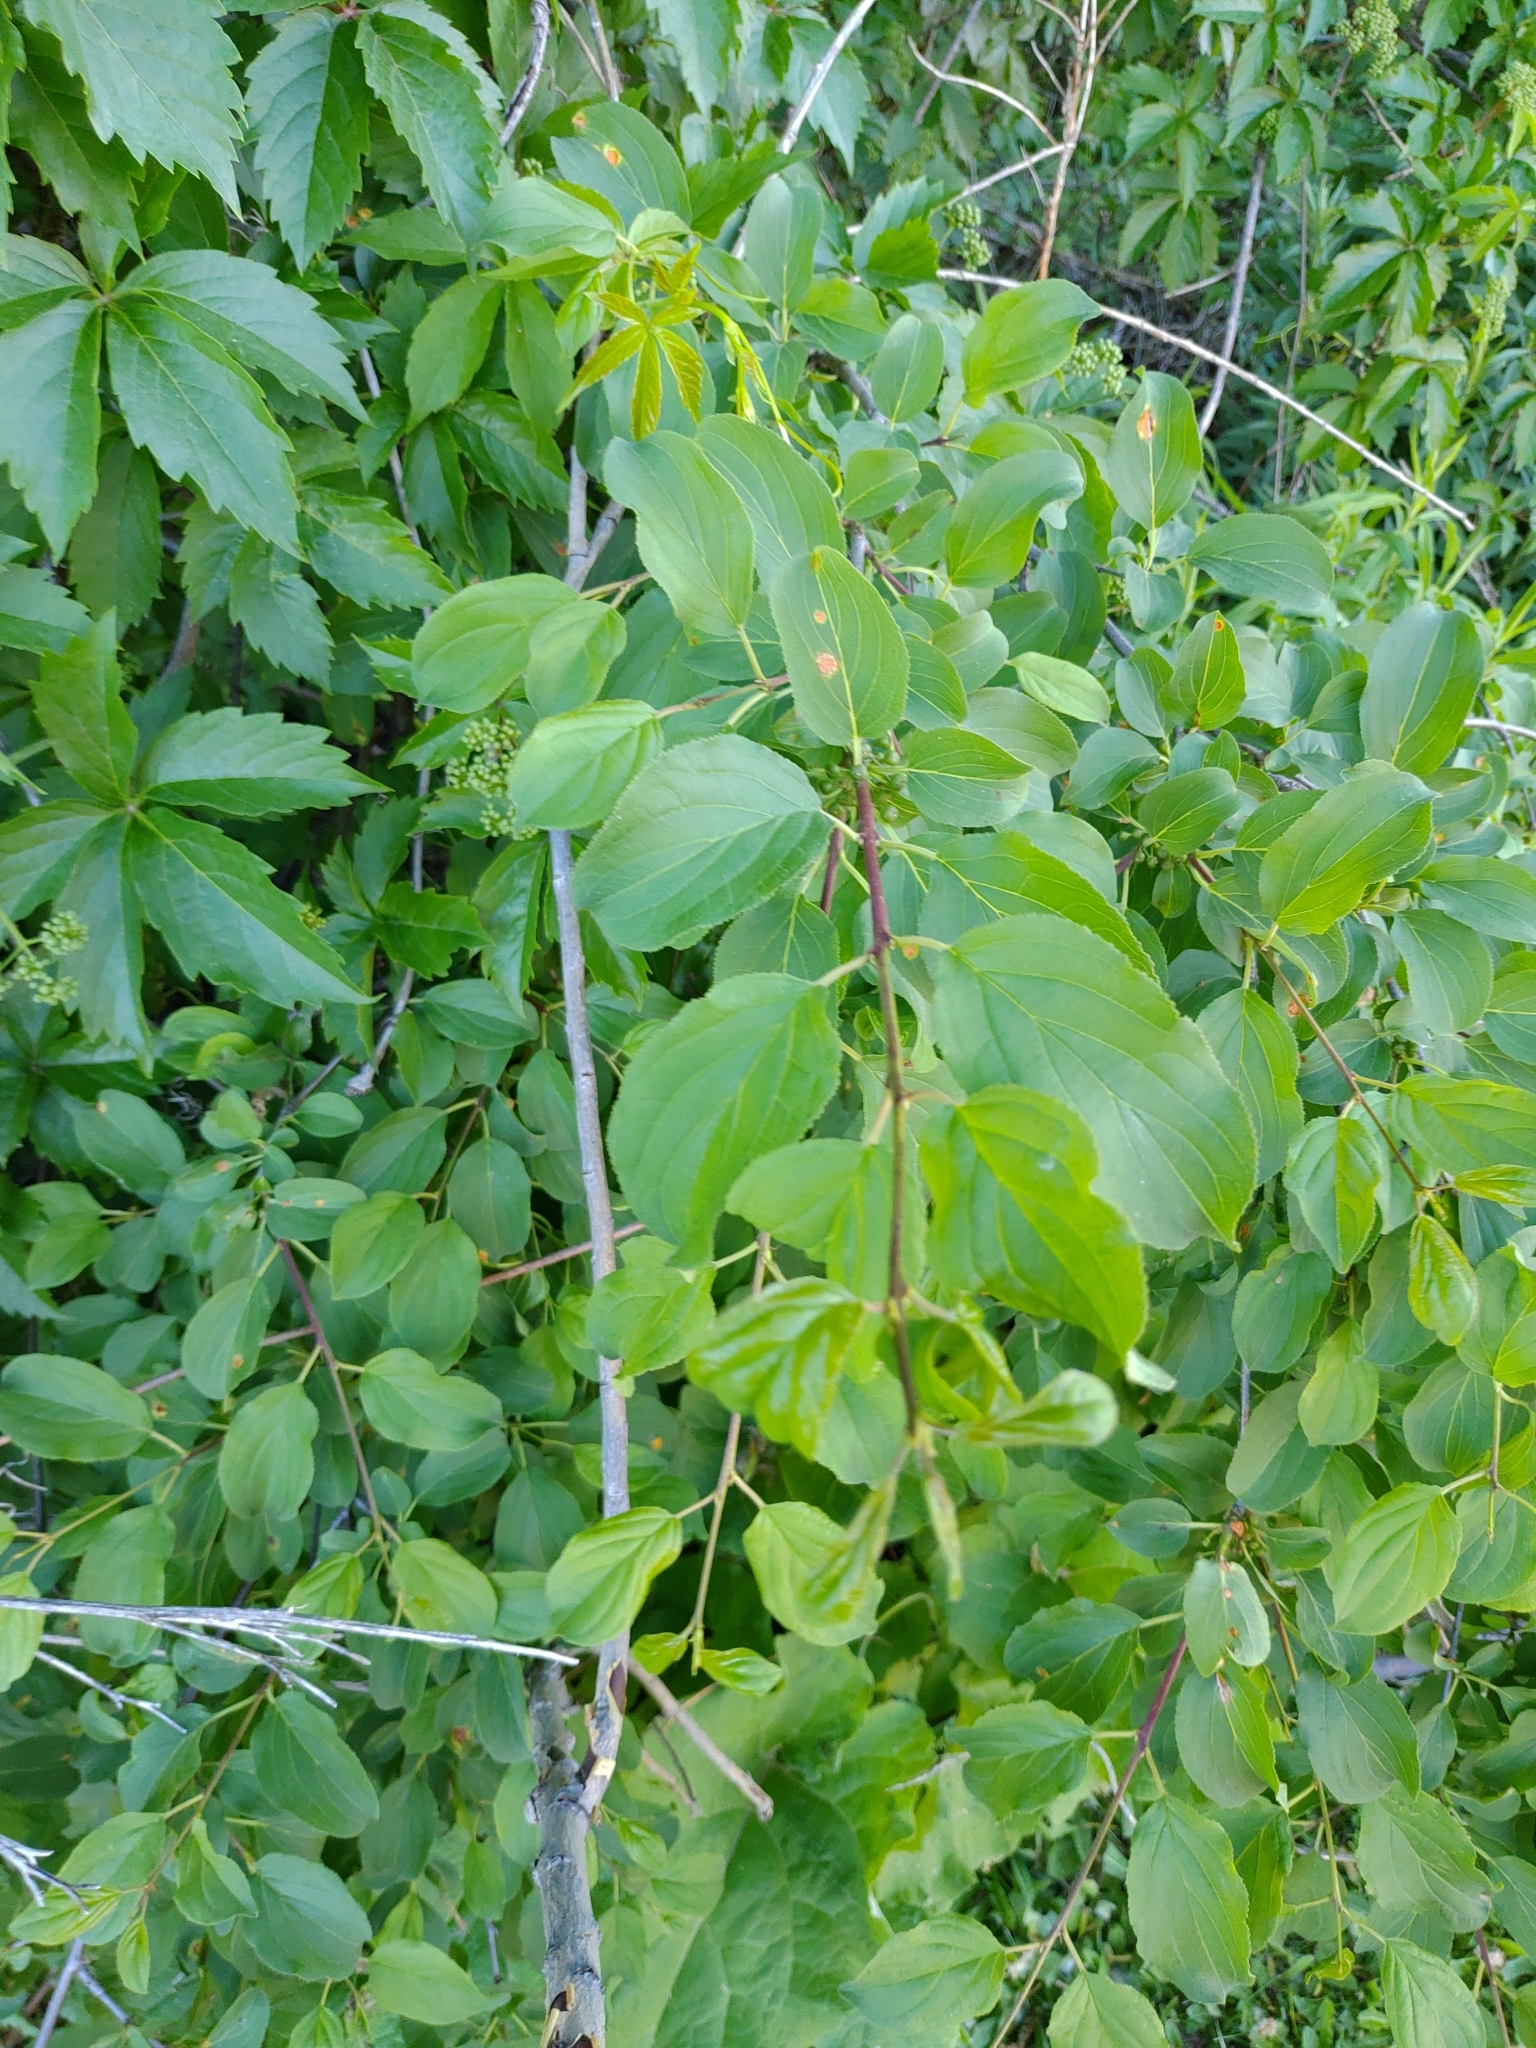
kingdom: Plantae
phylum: Tracheophyta
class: Magnoliopsida
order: Rosales
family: Rhamnaceae
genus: Rhamnus
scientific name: Rhamnus cathartica
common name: Common buckthorn
